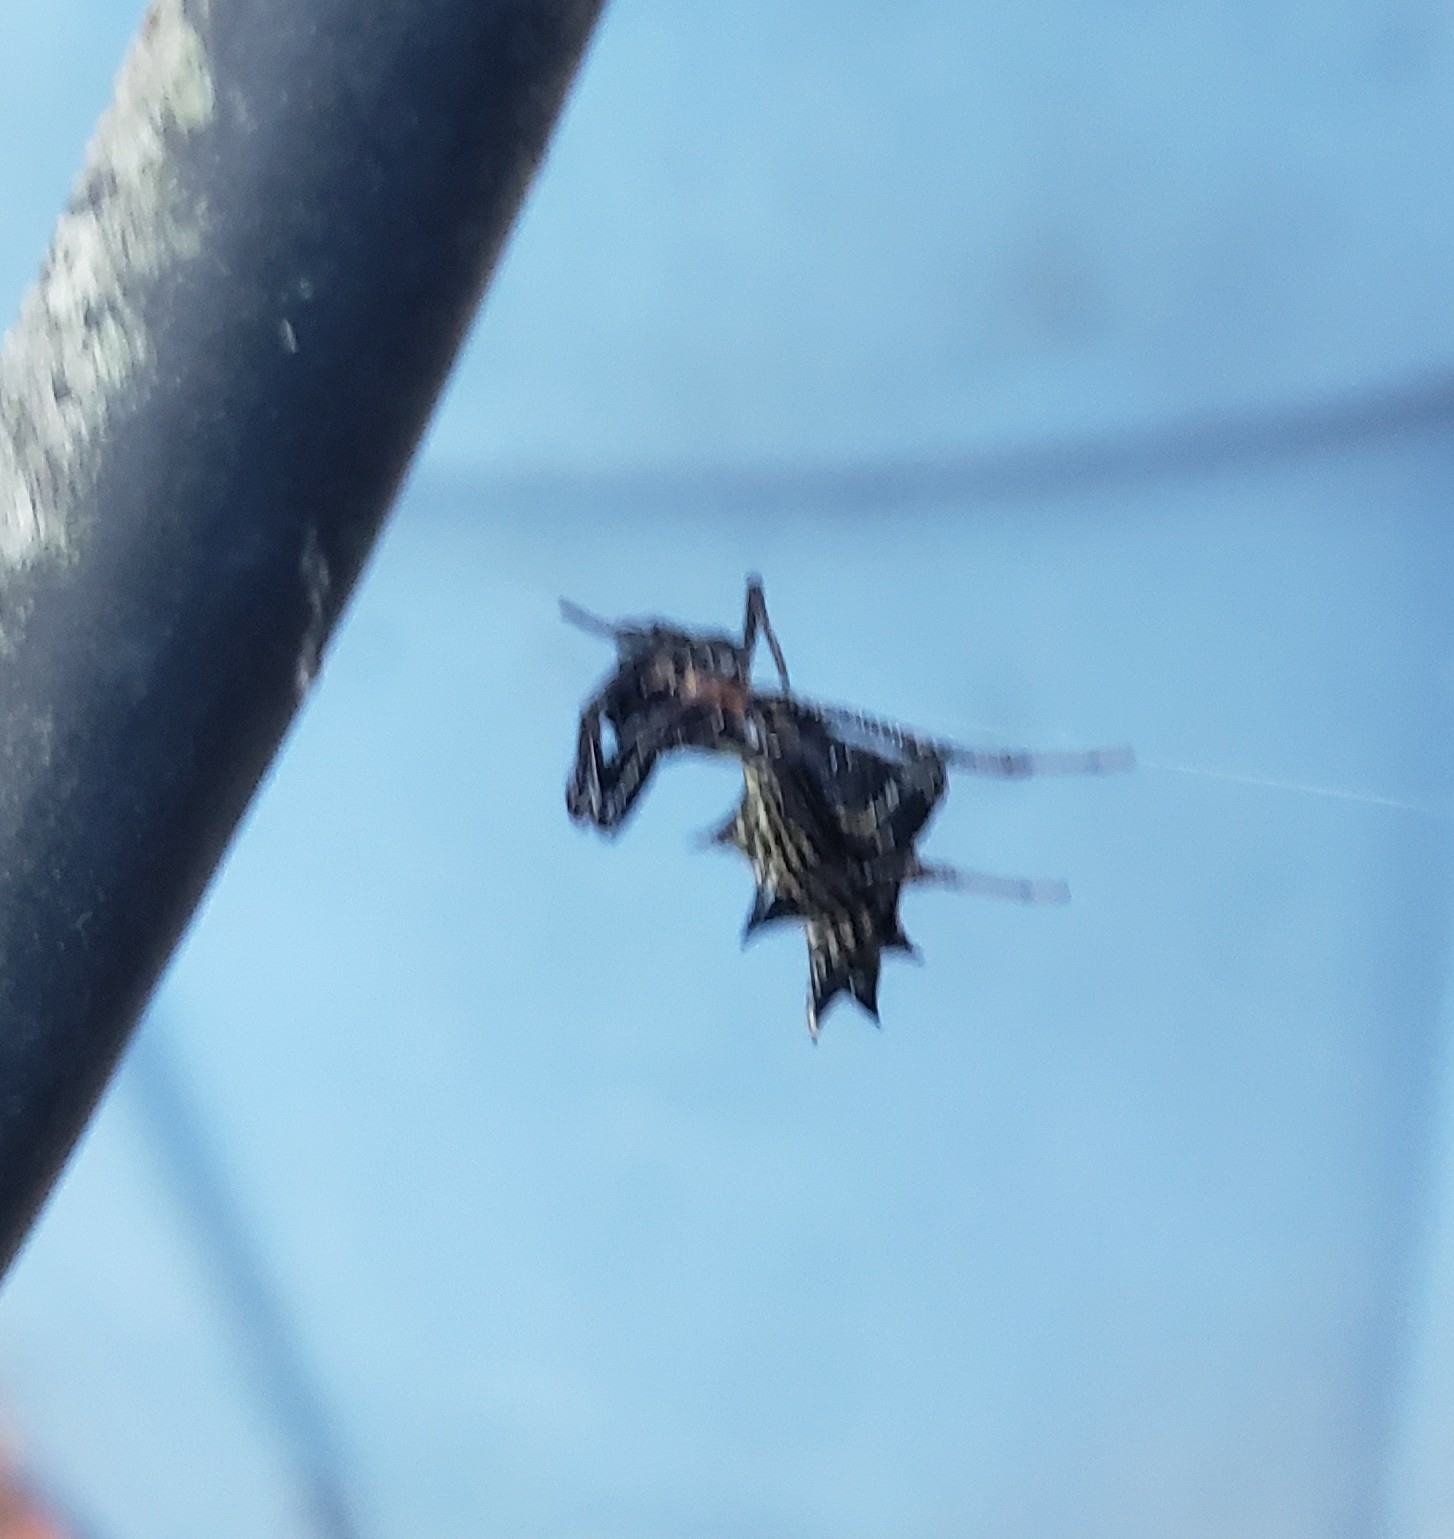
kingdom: Animalia
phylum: Arthropoda
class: Arachnida
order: Araneae
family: Araneidae
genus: Micrathena
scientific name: Micrathena gracilis
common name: Orb weavers
